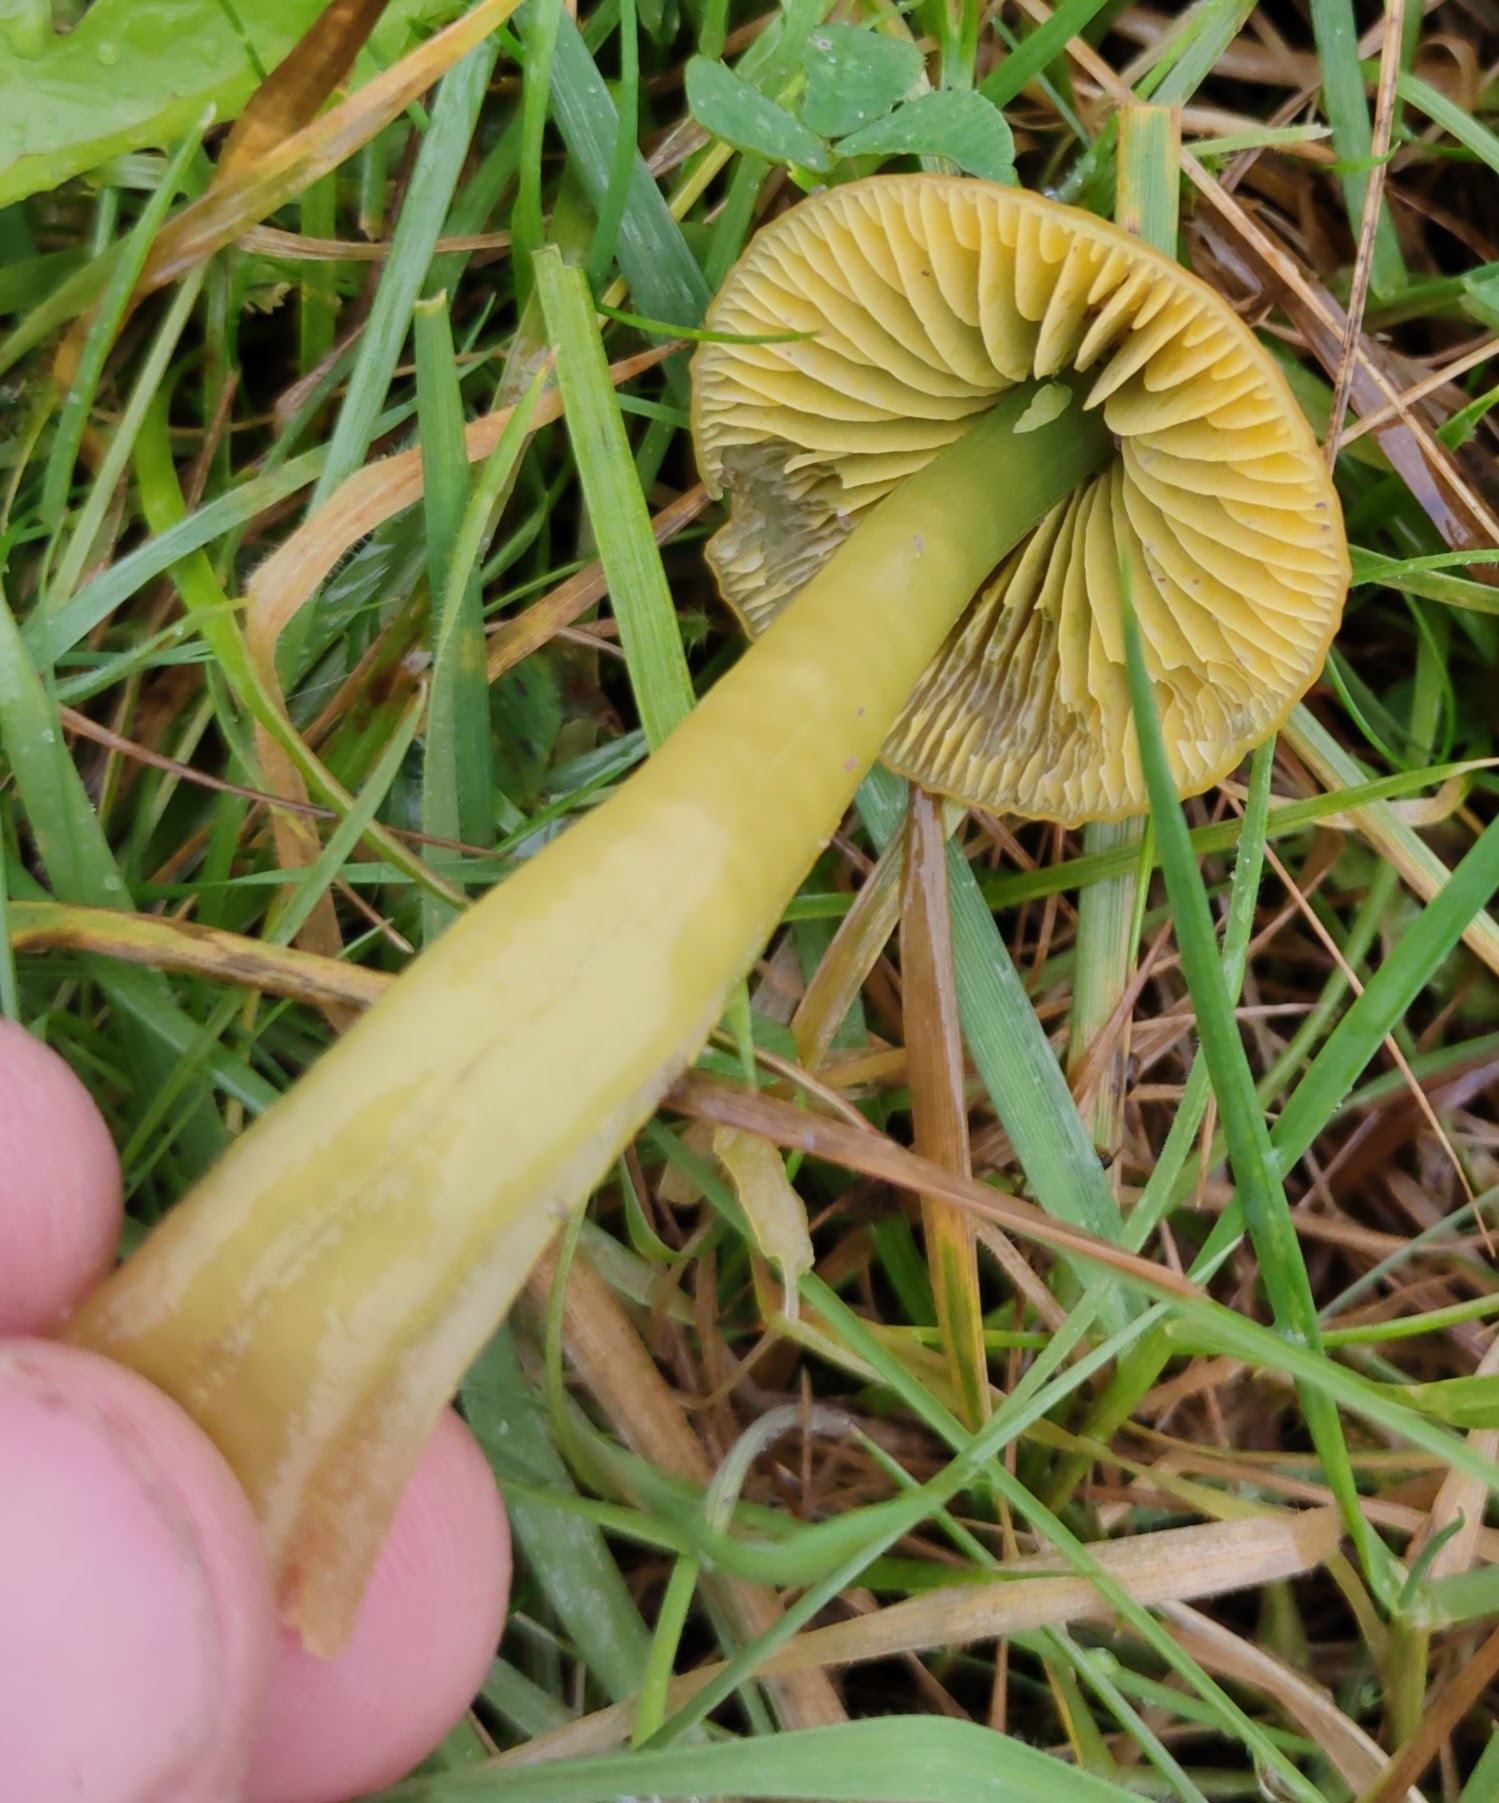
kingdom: Fungi
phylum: Basidiomycota
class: Agaricomycetes
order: Agaricales
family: Hygrophoraceae
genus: Gliophorus
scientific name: Gliophorus psittacinus
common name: Parrot wax-cap
